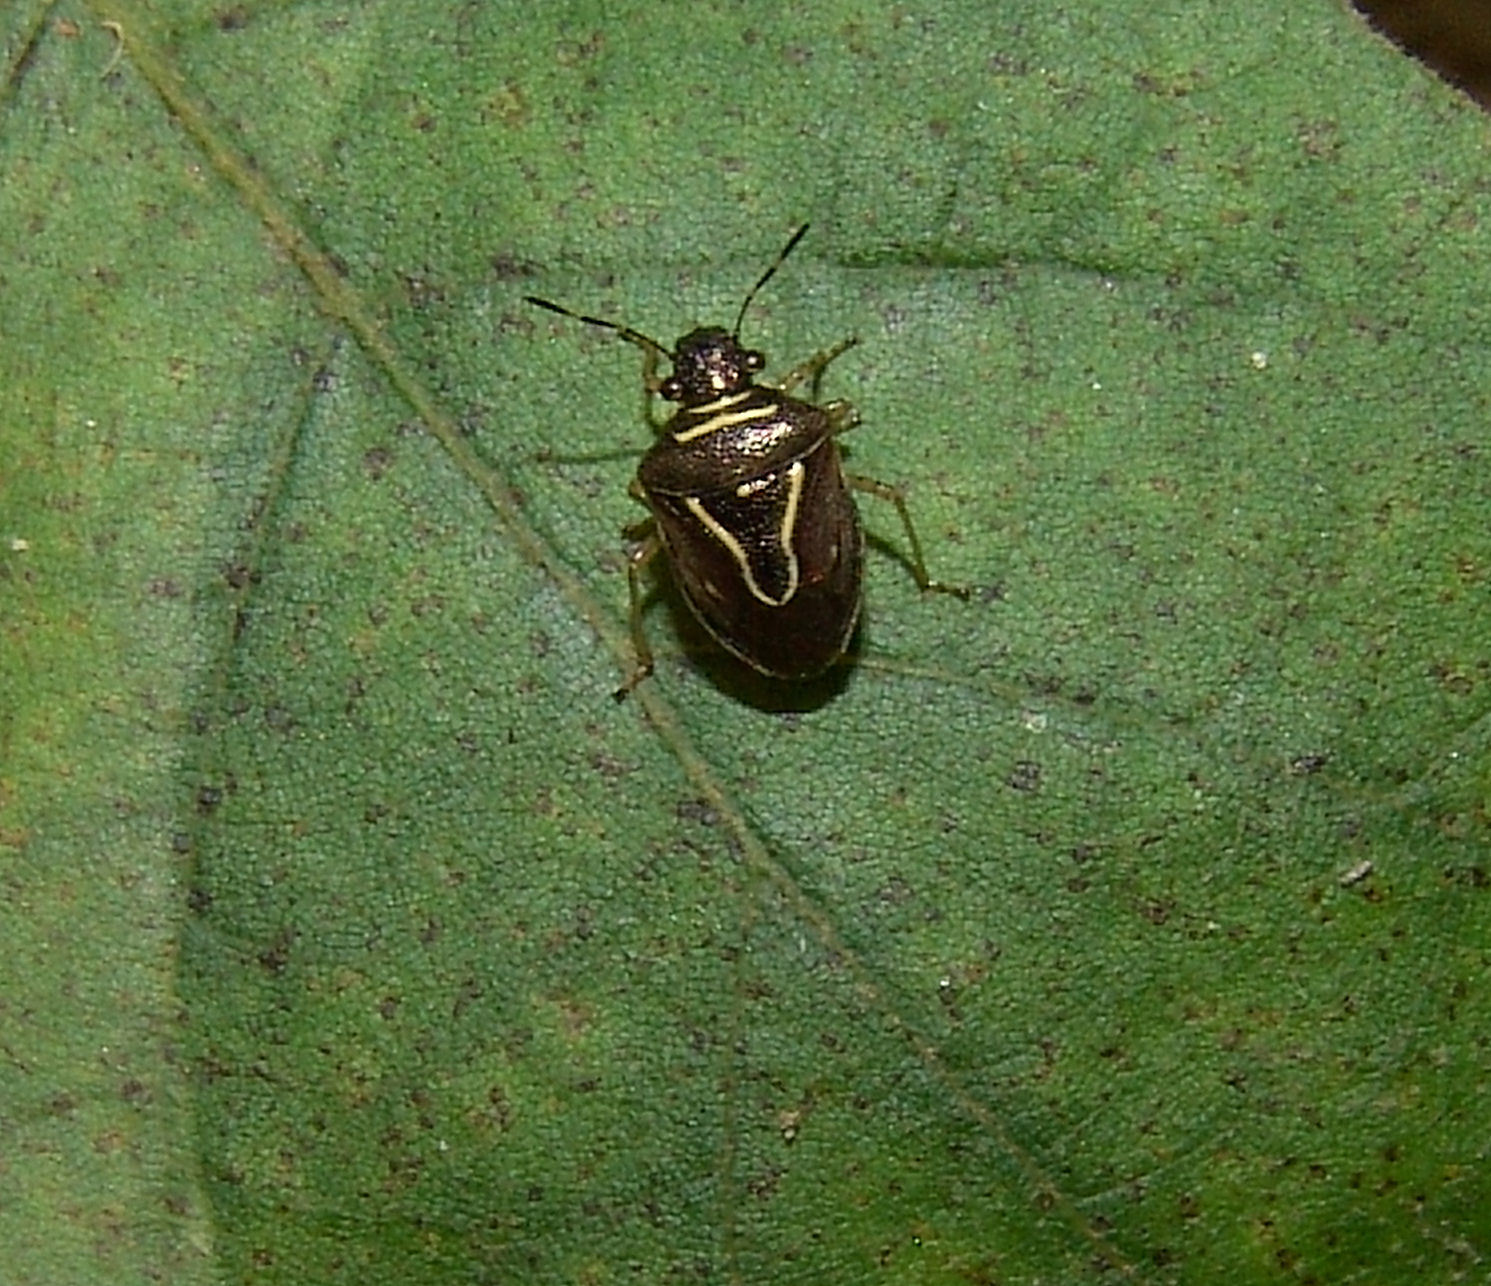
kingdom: Animalia
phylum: Arthropoda
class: Insecta
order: Hemiptera
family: Pentatomidae
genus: Mormidea
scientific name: Mormidea lugens
